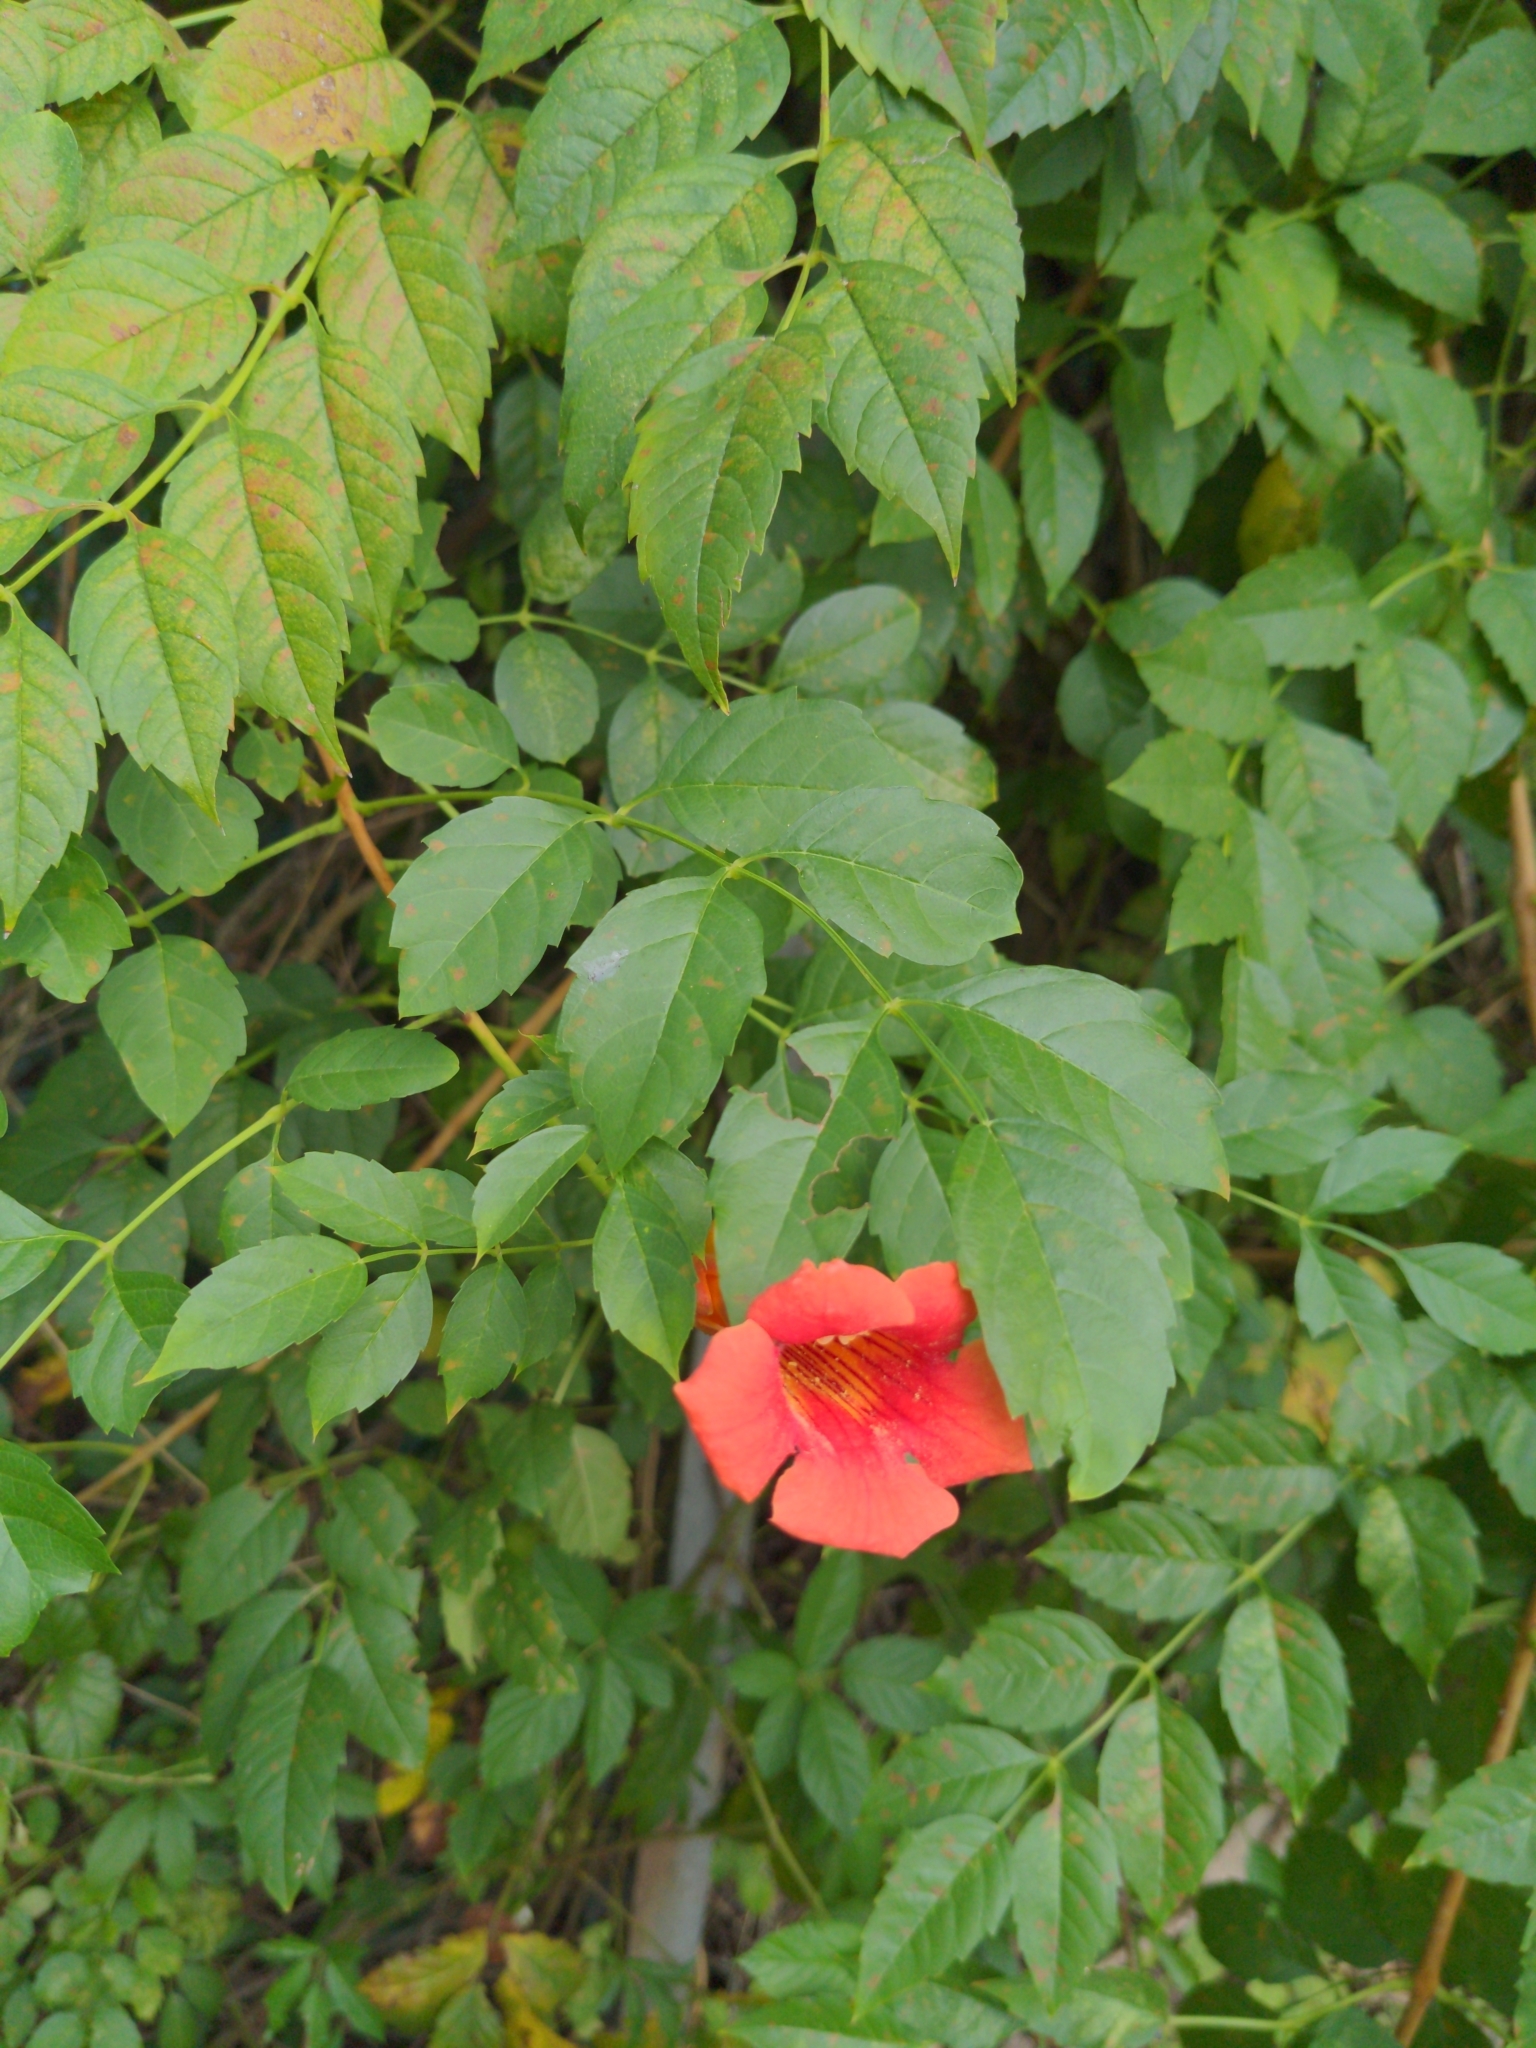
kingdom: Plantae
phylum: Tracheophyta
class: Magnoliopsida
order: Lamiales
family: Bignoniaceae
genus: Campsis
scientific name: Campsis radicans
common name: Trumpet-creeper
